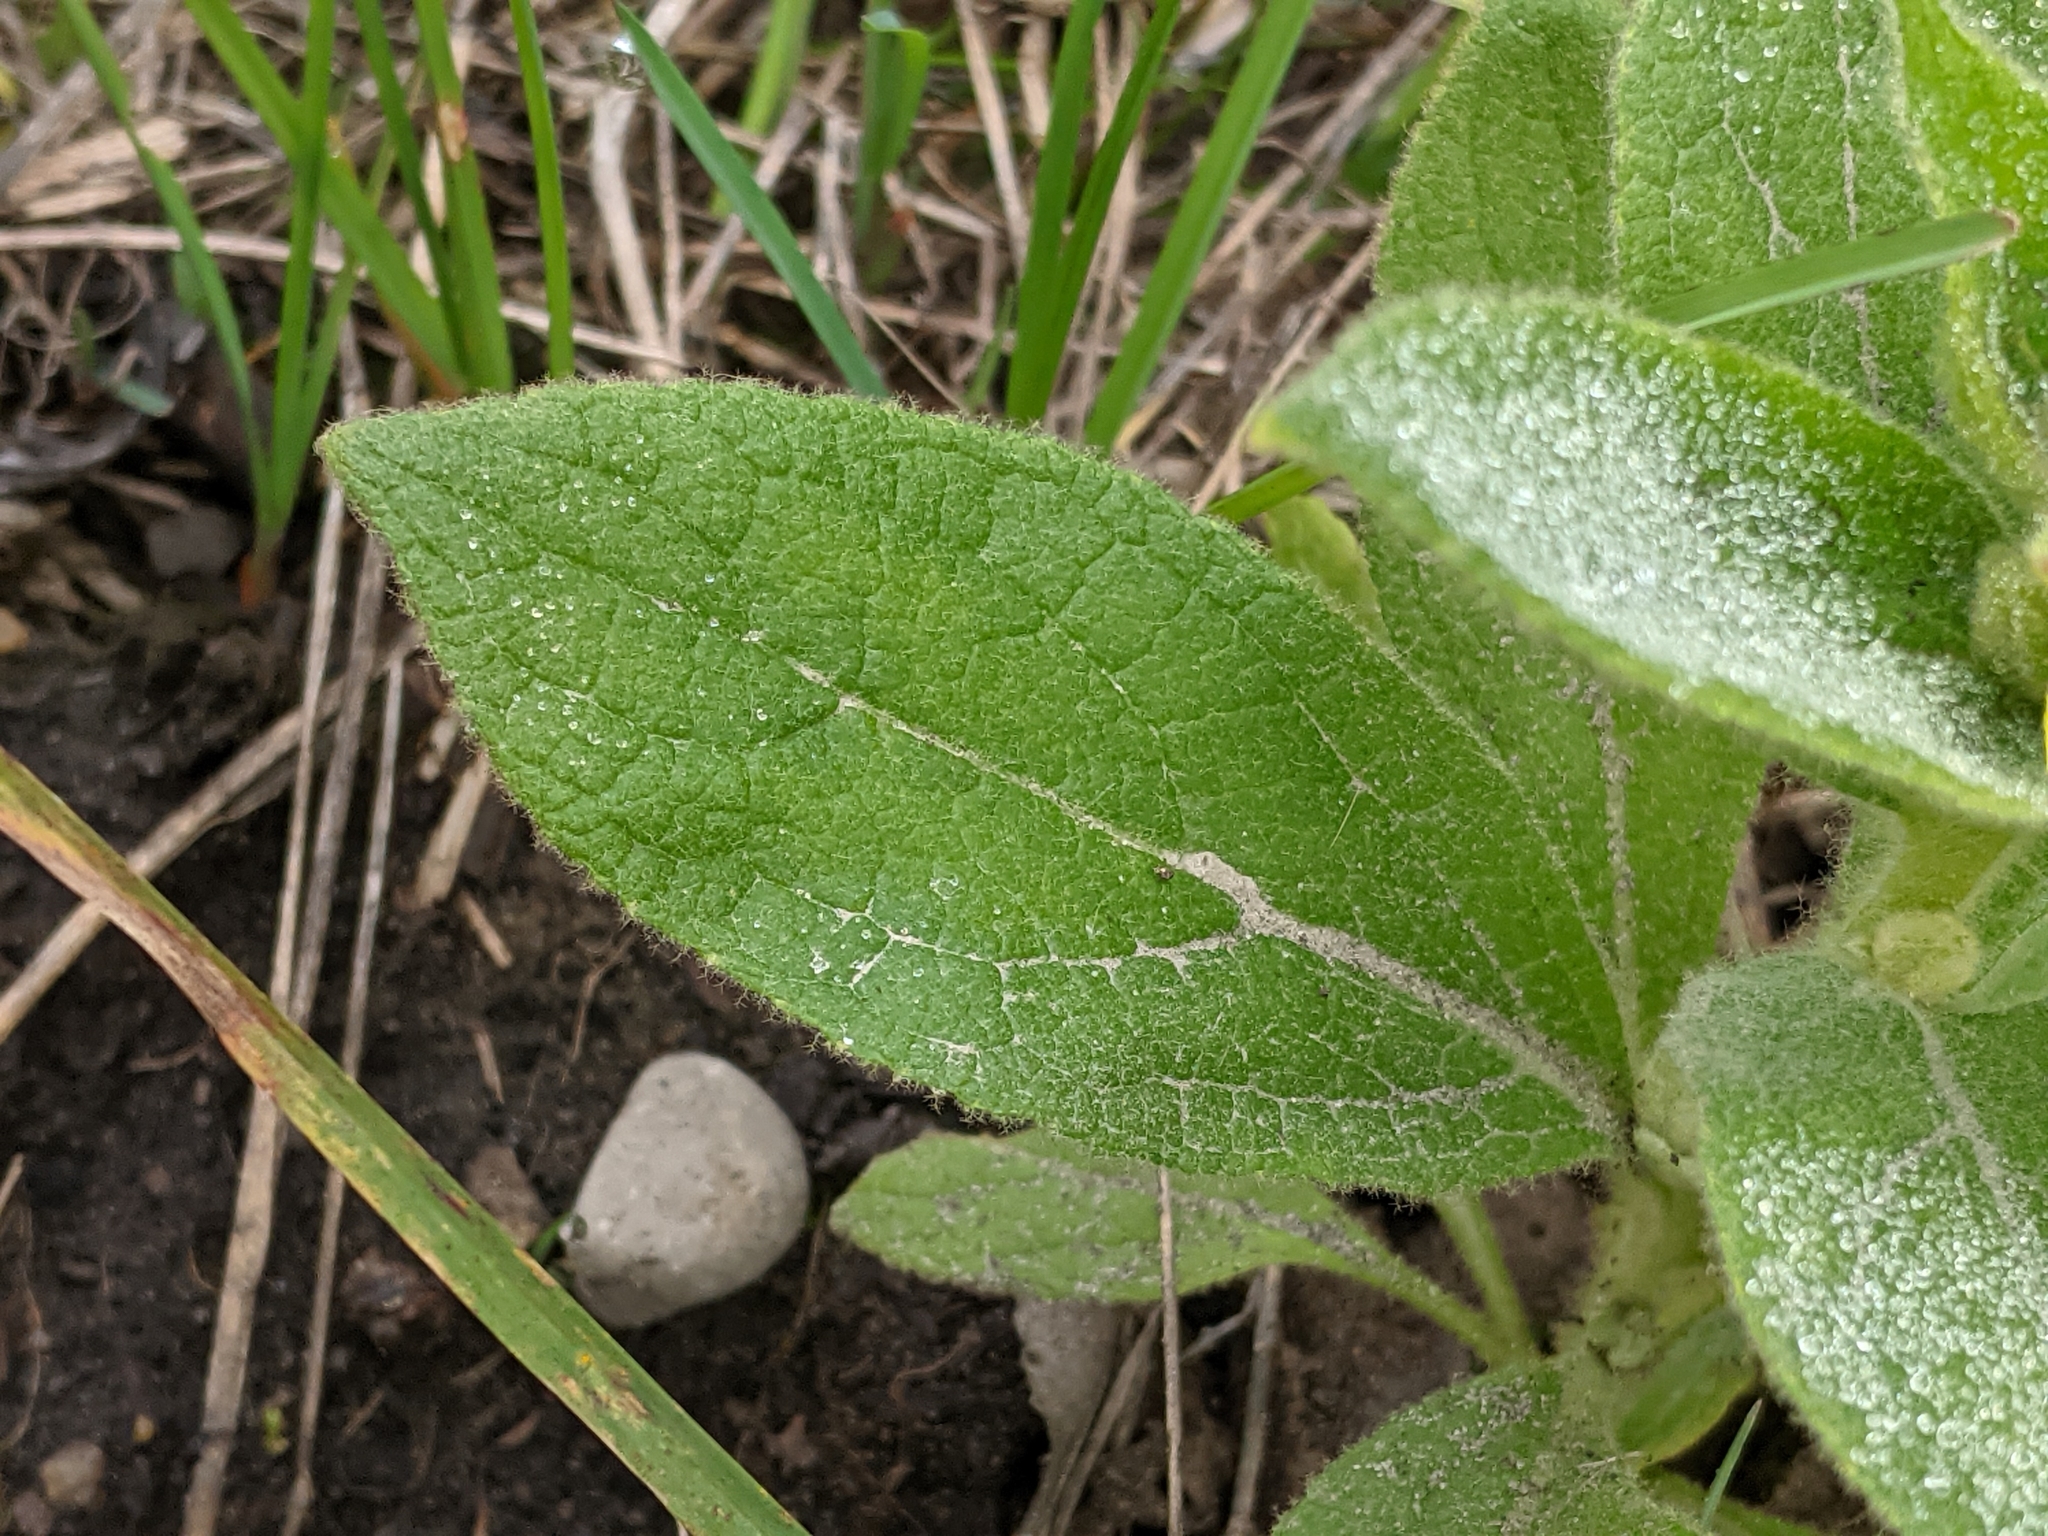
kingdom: Plantae
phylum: Tracheophyta
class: Magnoliopsida
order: Lamiales
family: Scrophulariaceae
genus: Verbascum
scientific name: Verbascum thapsus
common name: Common mullein
